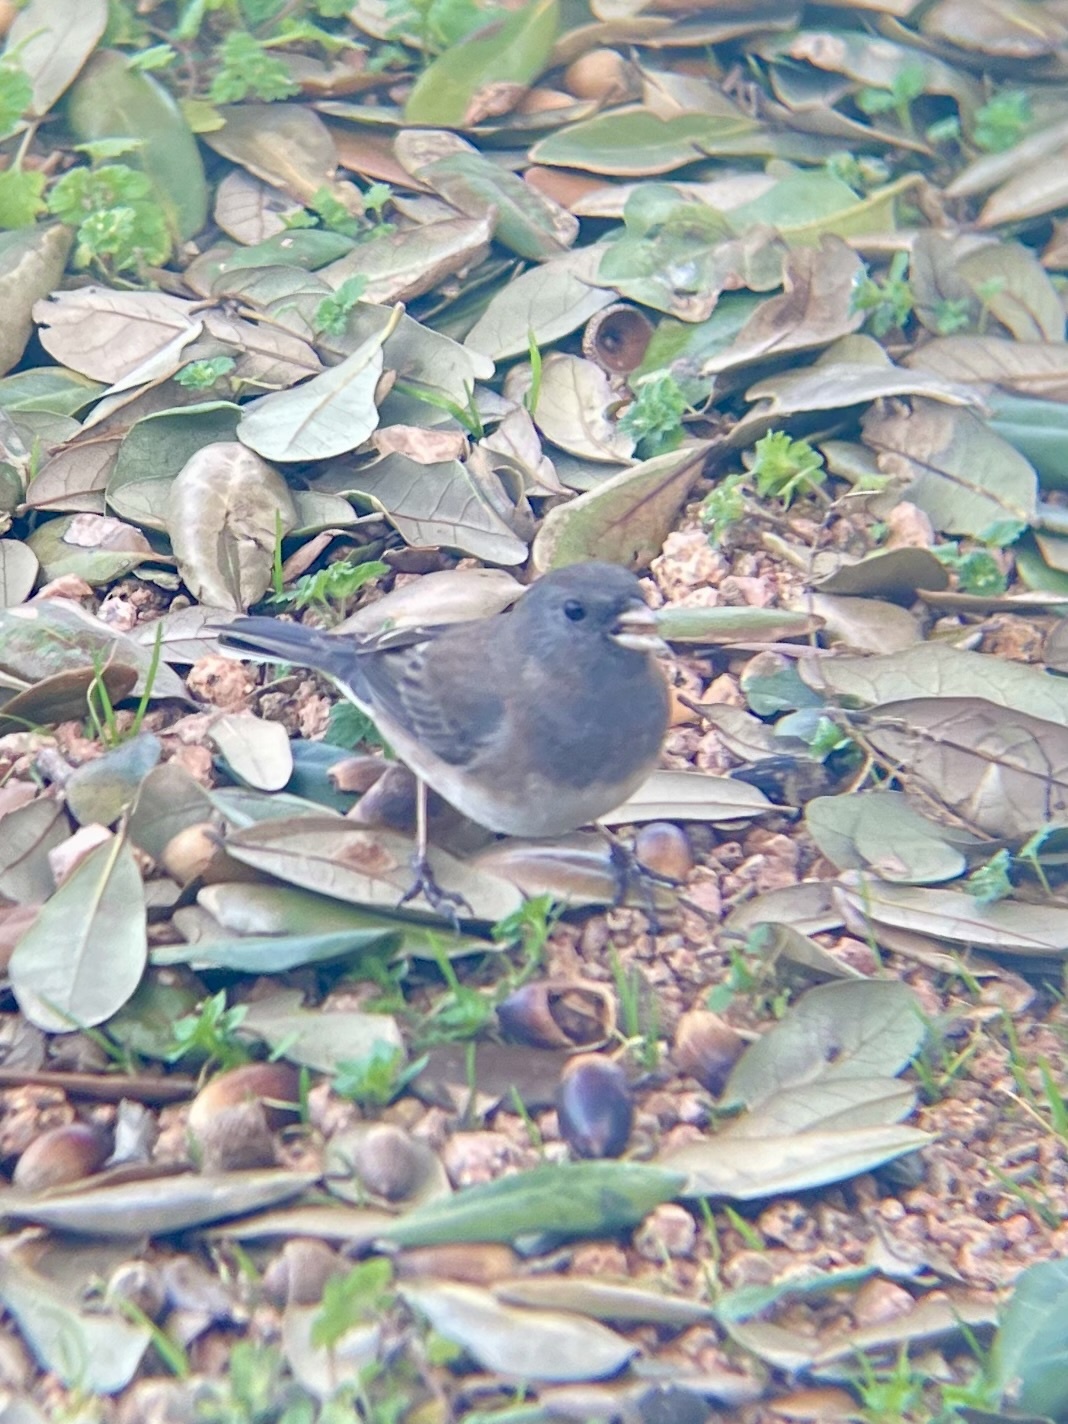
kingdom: Animalia
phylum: Chordata
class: Aves
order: Passeriformes
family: Passerellidae
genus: Junco
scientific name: Junco hyemalis
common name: Dark-eyed junco
